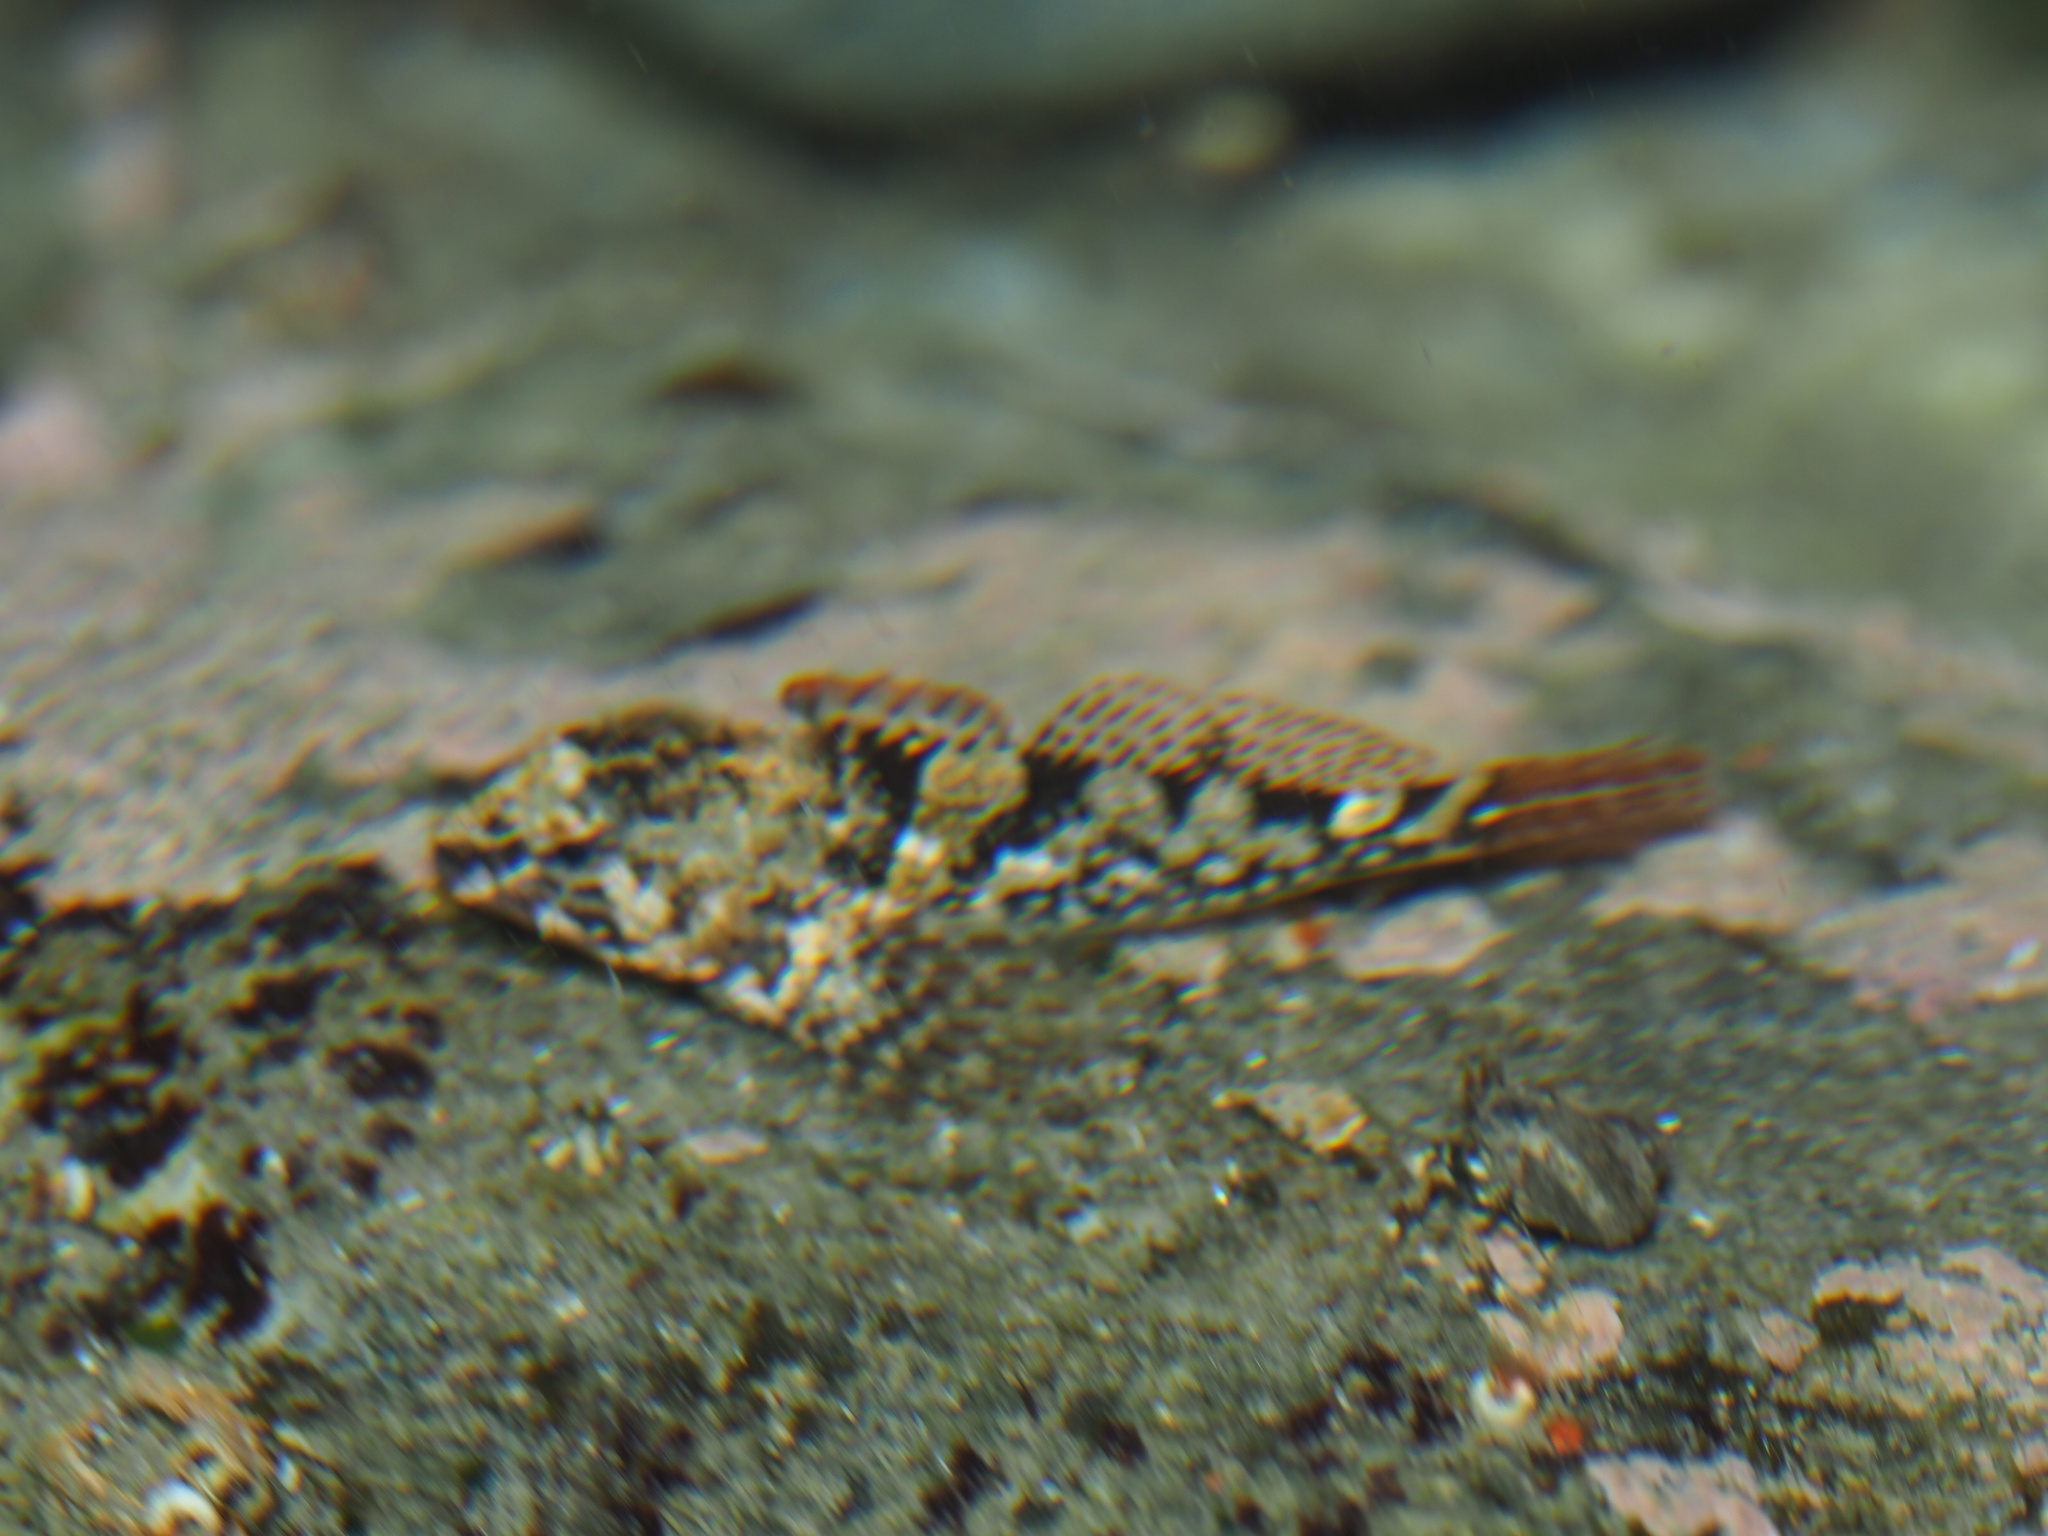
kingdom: Animalia
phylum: Chordata
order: Scorpaeniformes
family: Cottidae
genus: Oligocottus
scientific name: Oligocottus maculosus
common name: Tidepool sculpin
